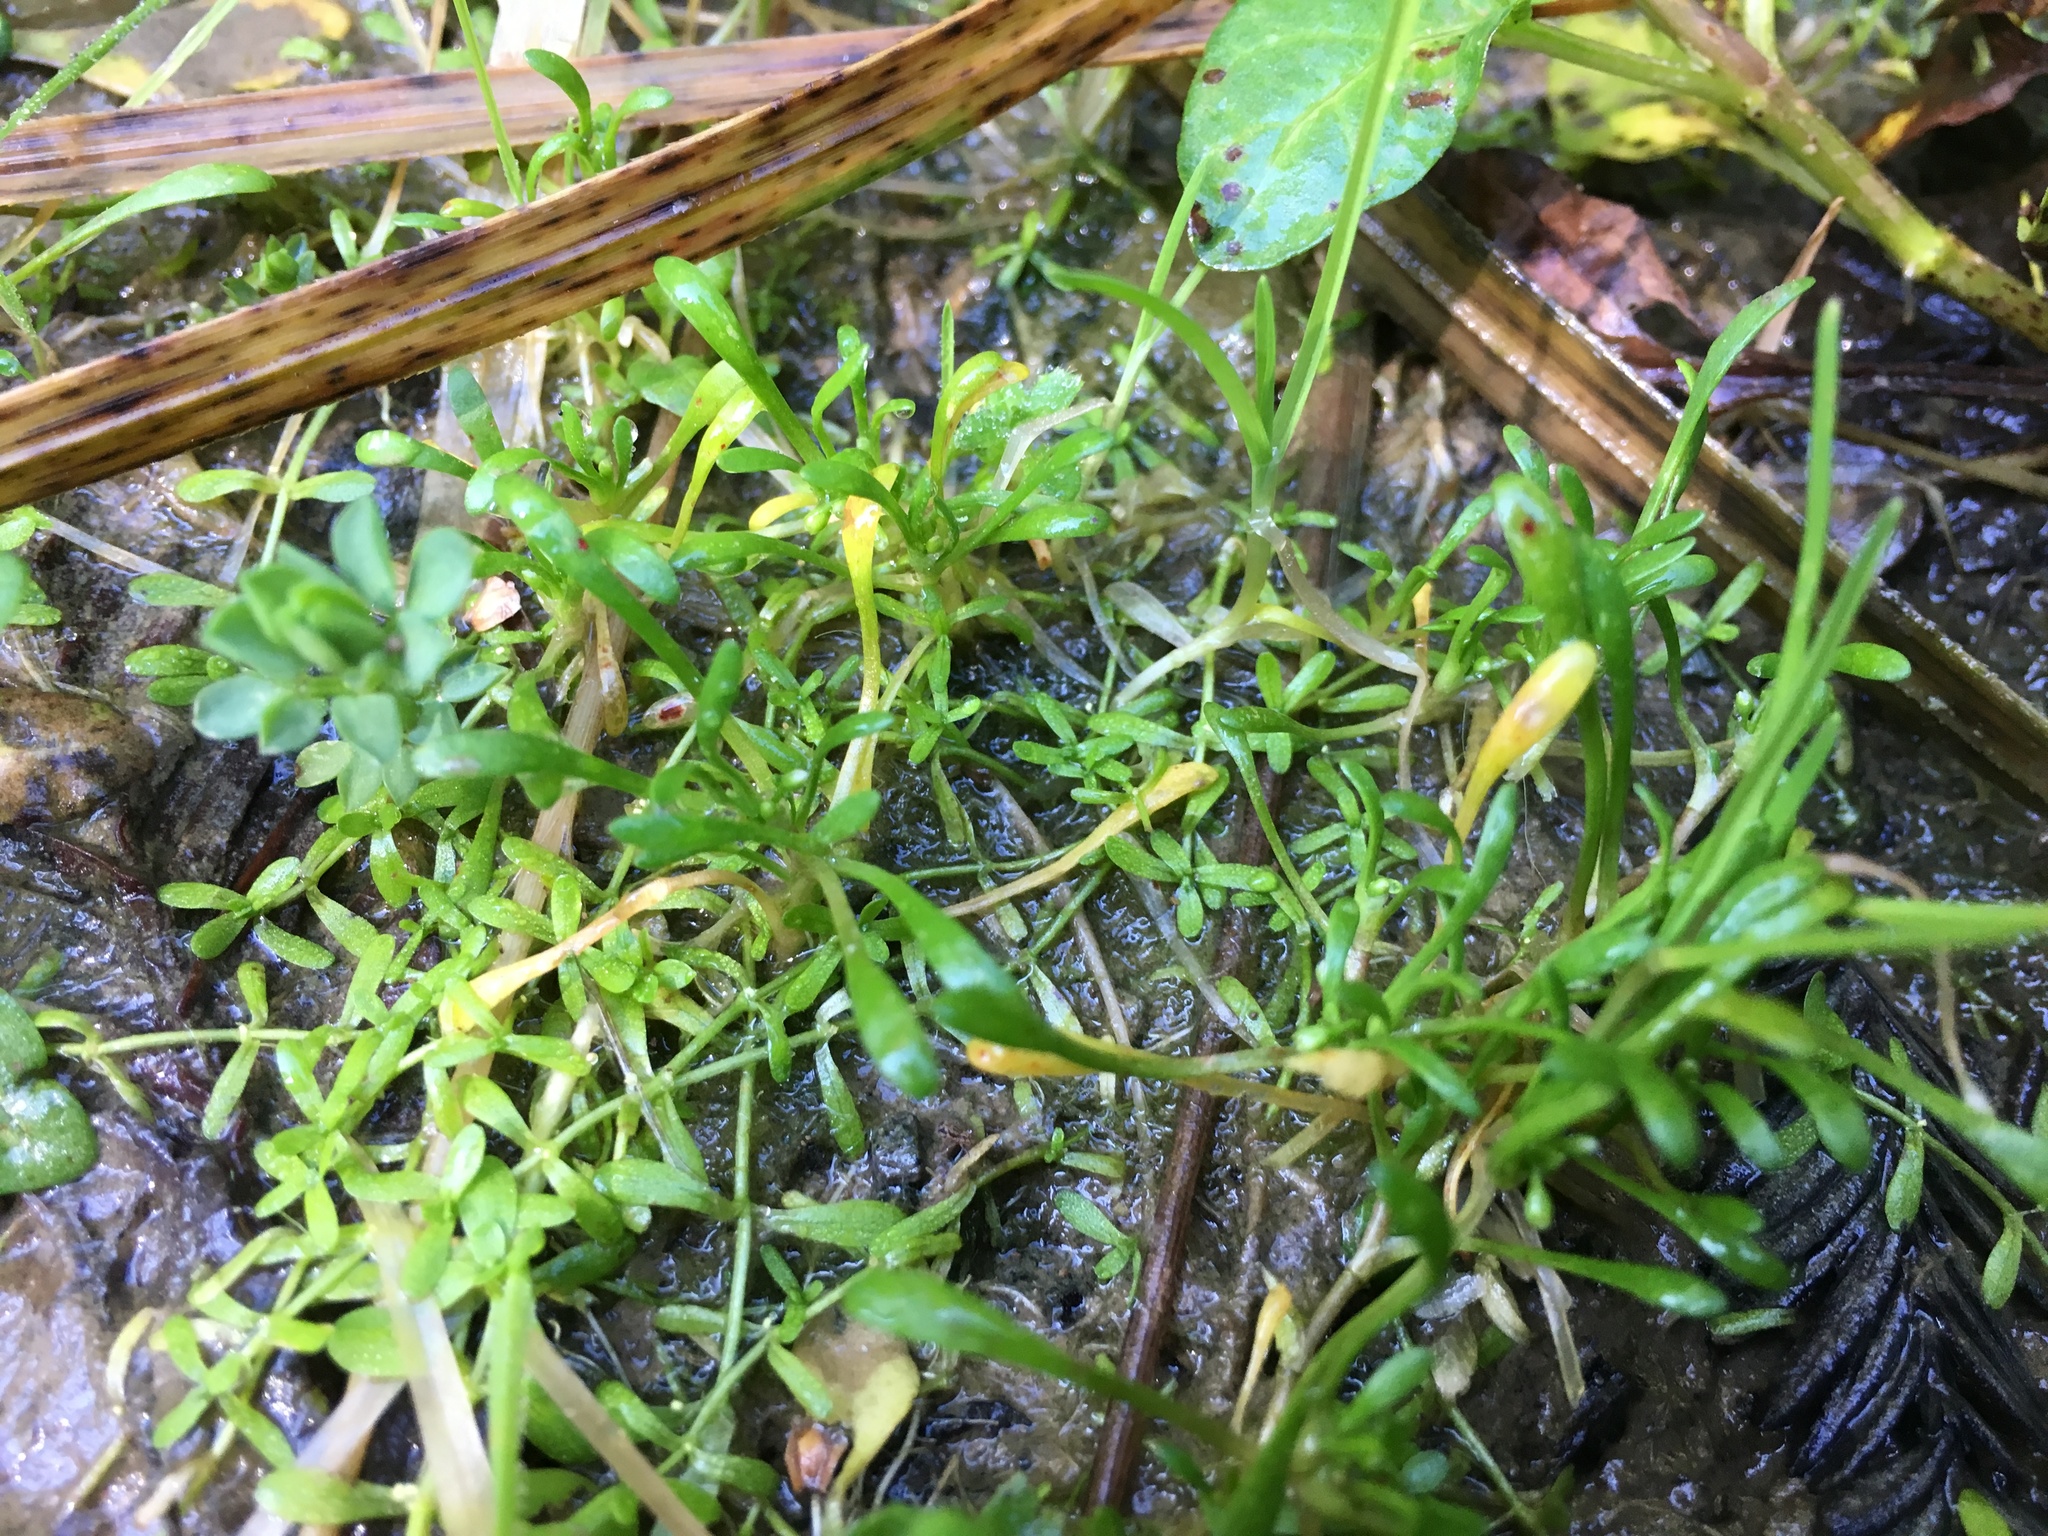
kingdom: Plantae
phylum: Tracheophyta
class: Magnoliopsida
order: Caryophyllales
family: Montiaceae
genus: Montia
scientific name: Montia howellii
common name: Howell's miner's-lettuce
